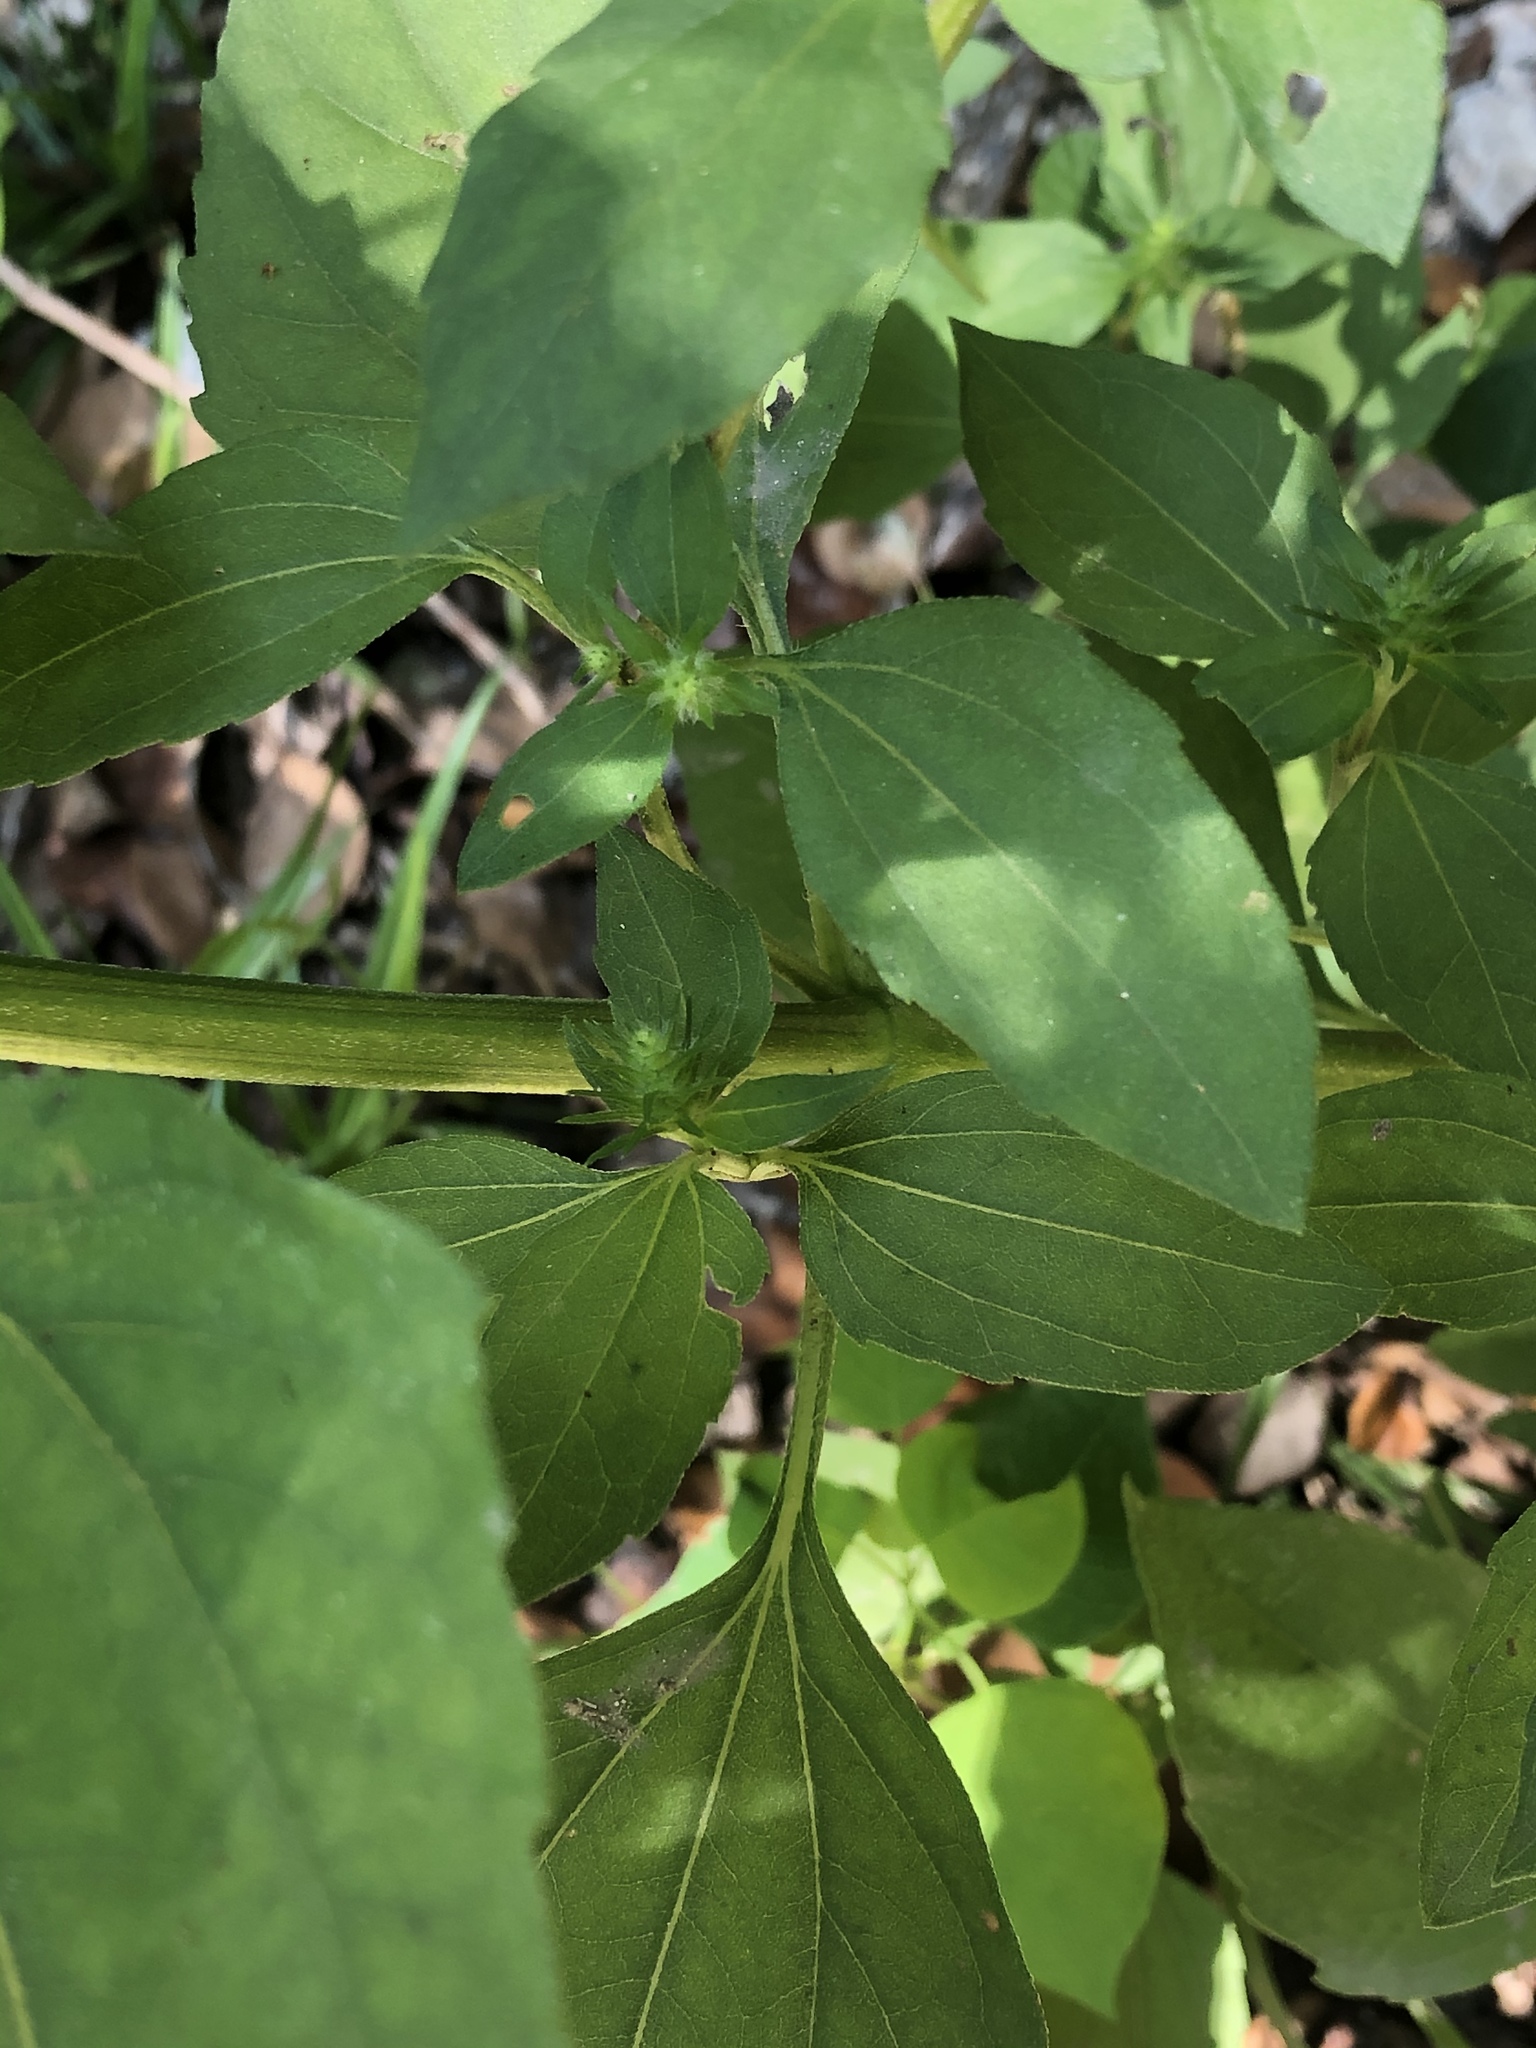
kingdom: Plantae
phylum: Tracheophyta
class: Magnoliopsida
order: Asterales
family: Asteraceae
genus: Iva
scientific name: Iva annua
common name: Marsh-elder
